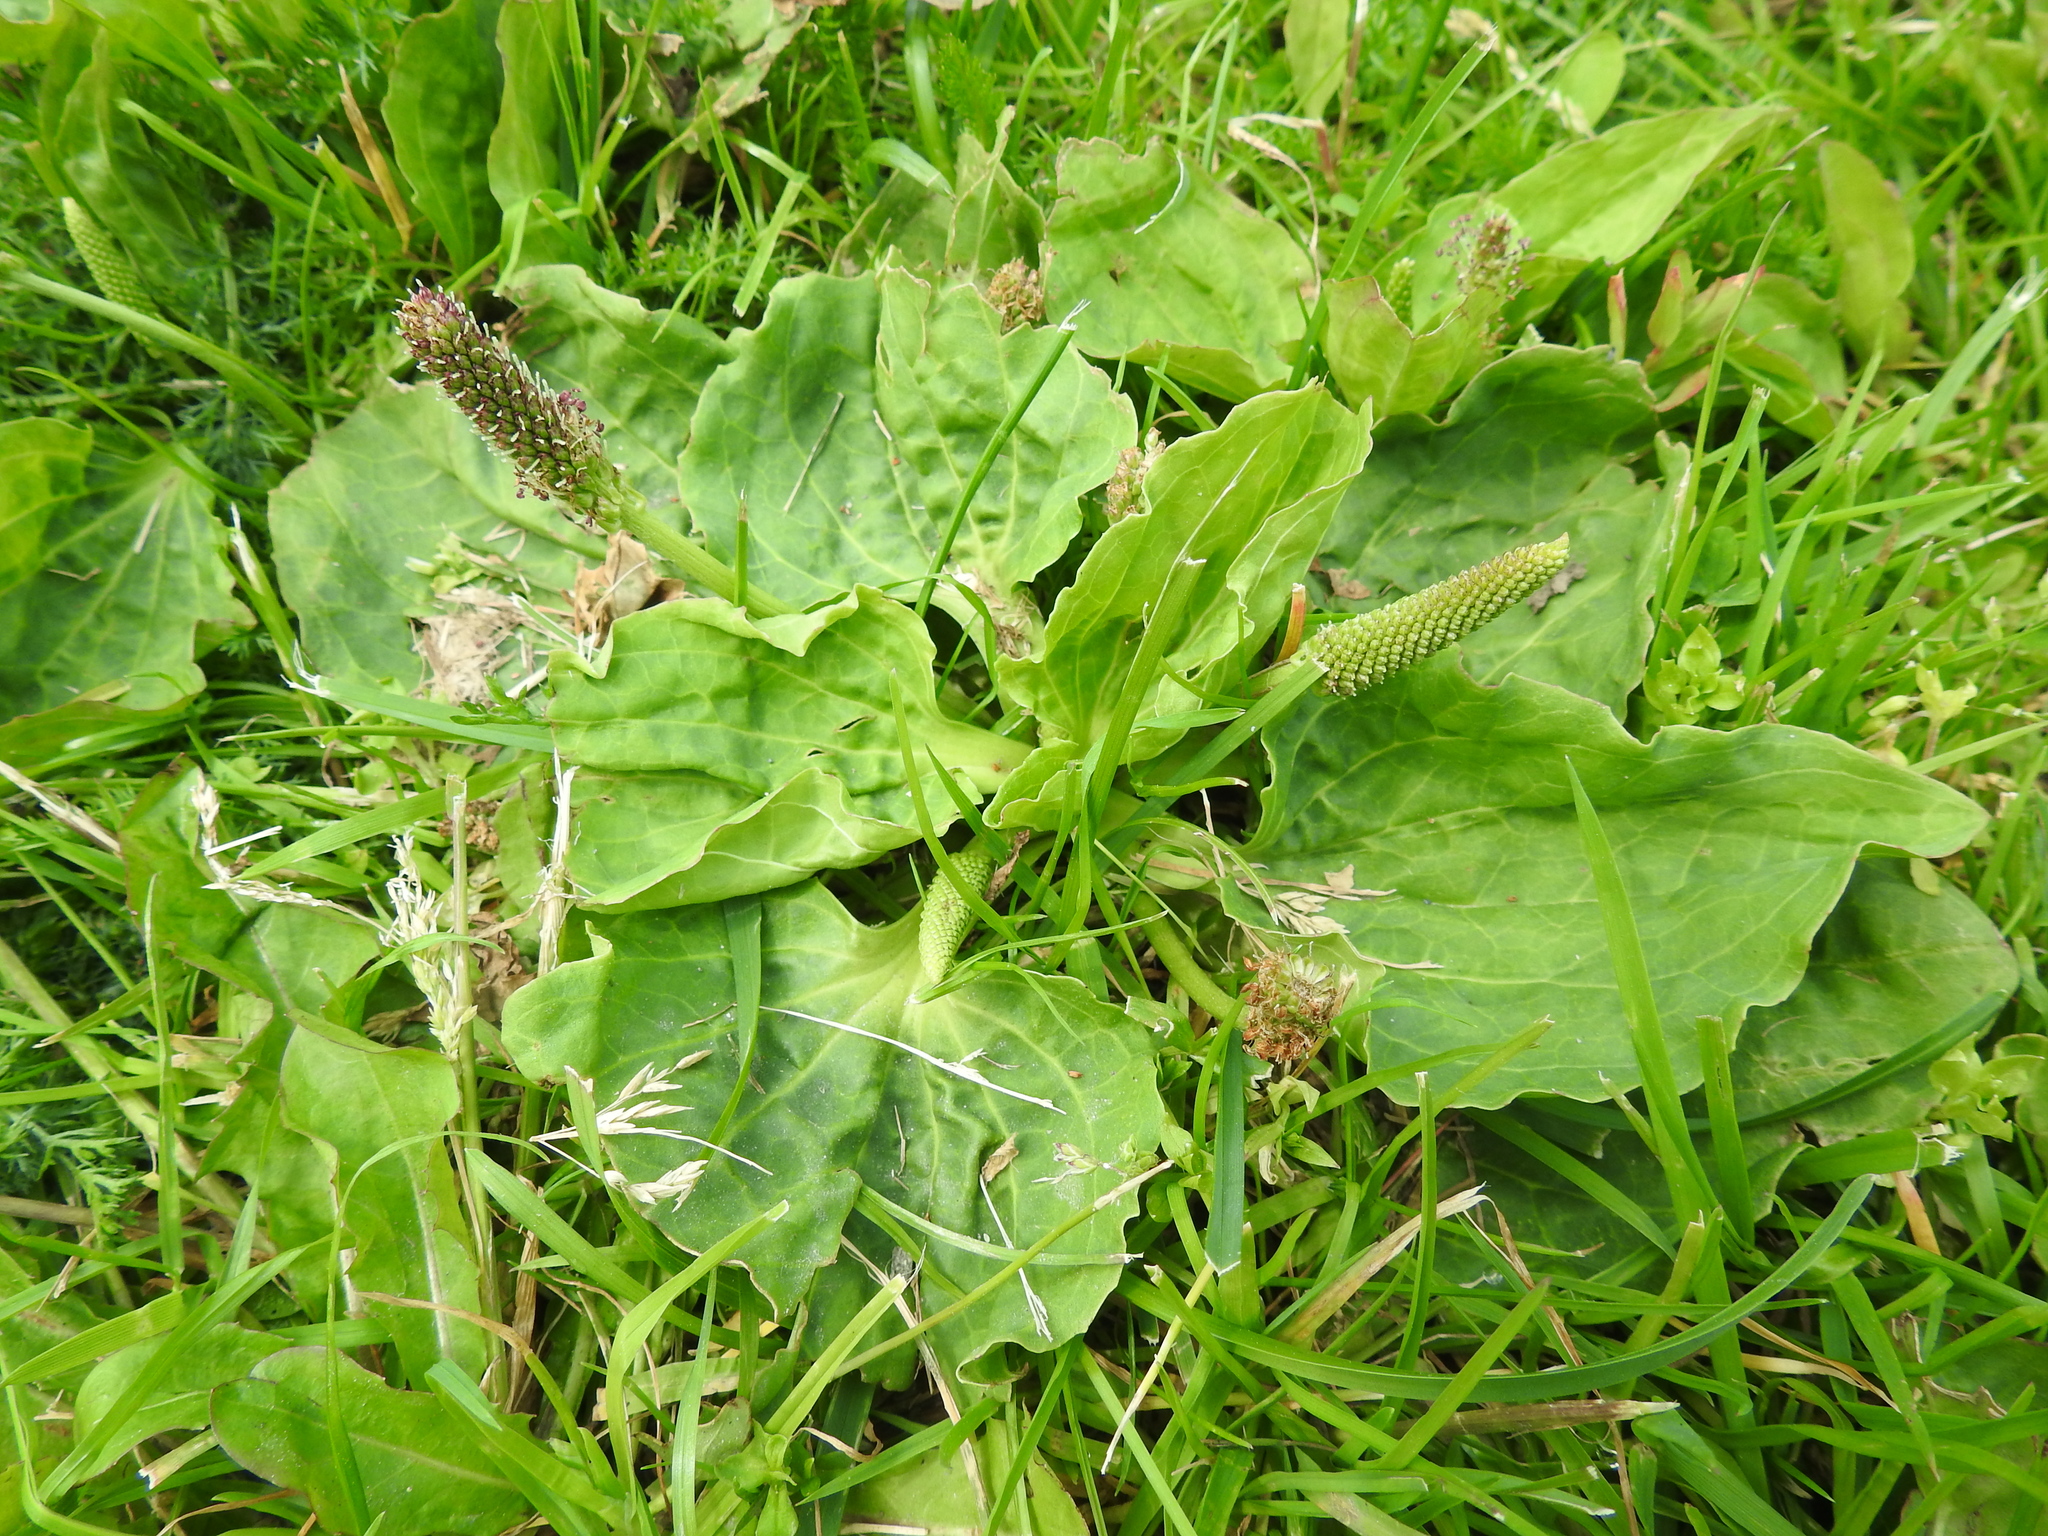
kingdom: Plantae
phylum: Tracheophyta
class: Magnoliopsida
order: Lamiales
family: Plantaginaceae
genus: Plantago
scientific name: Plantago major
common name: Common plantain
